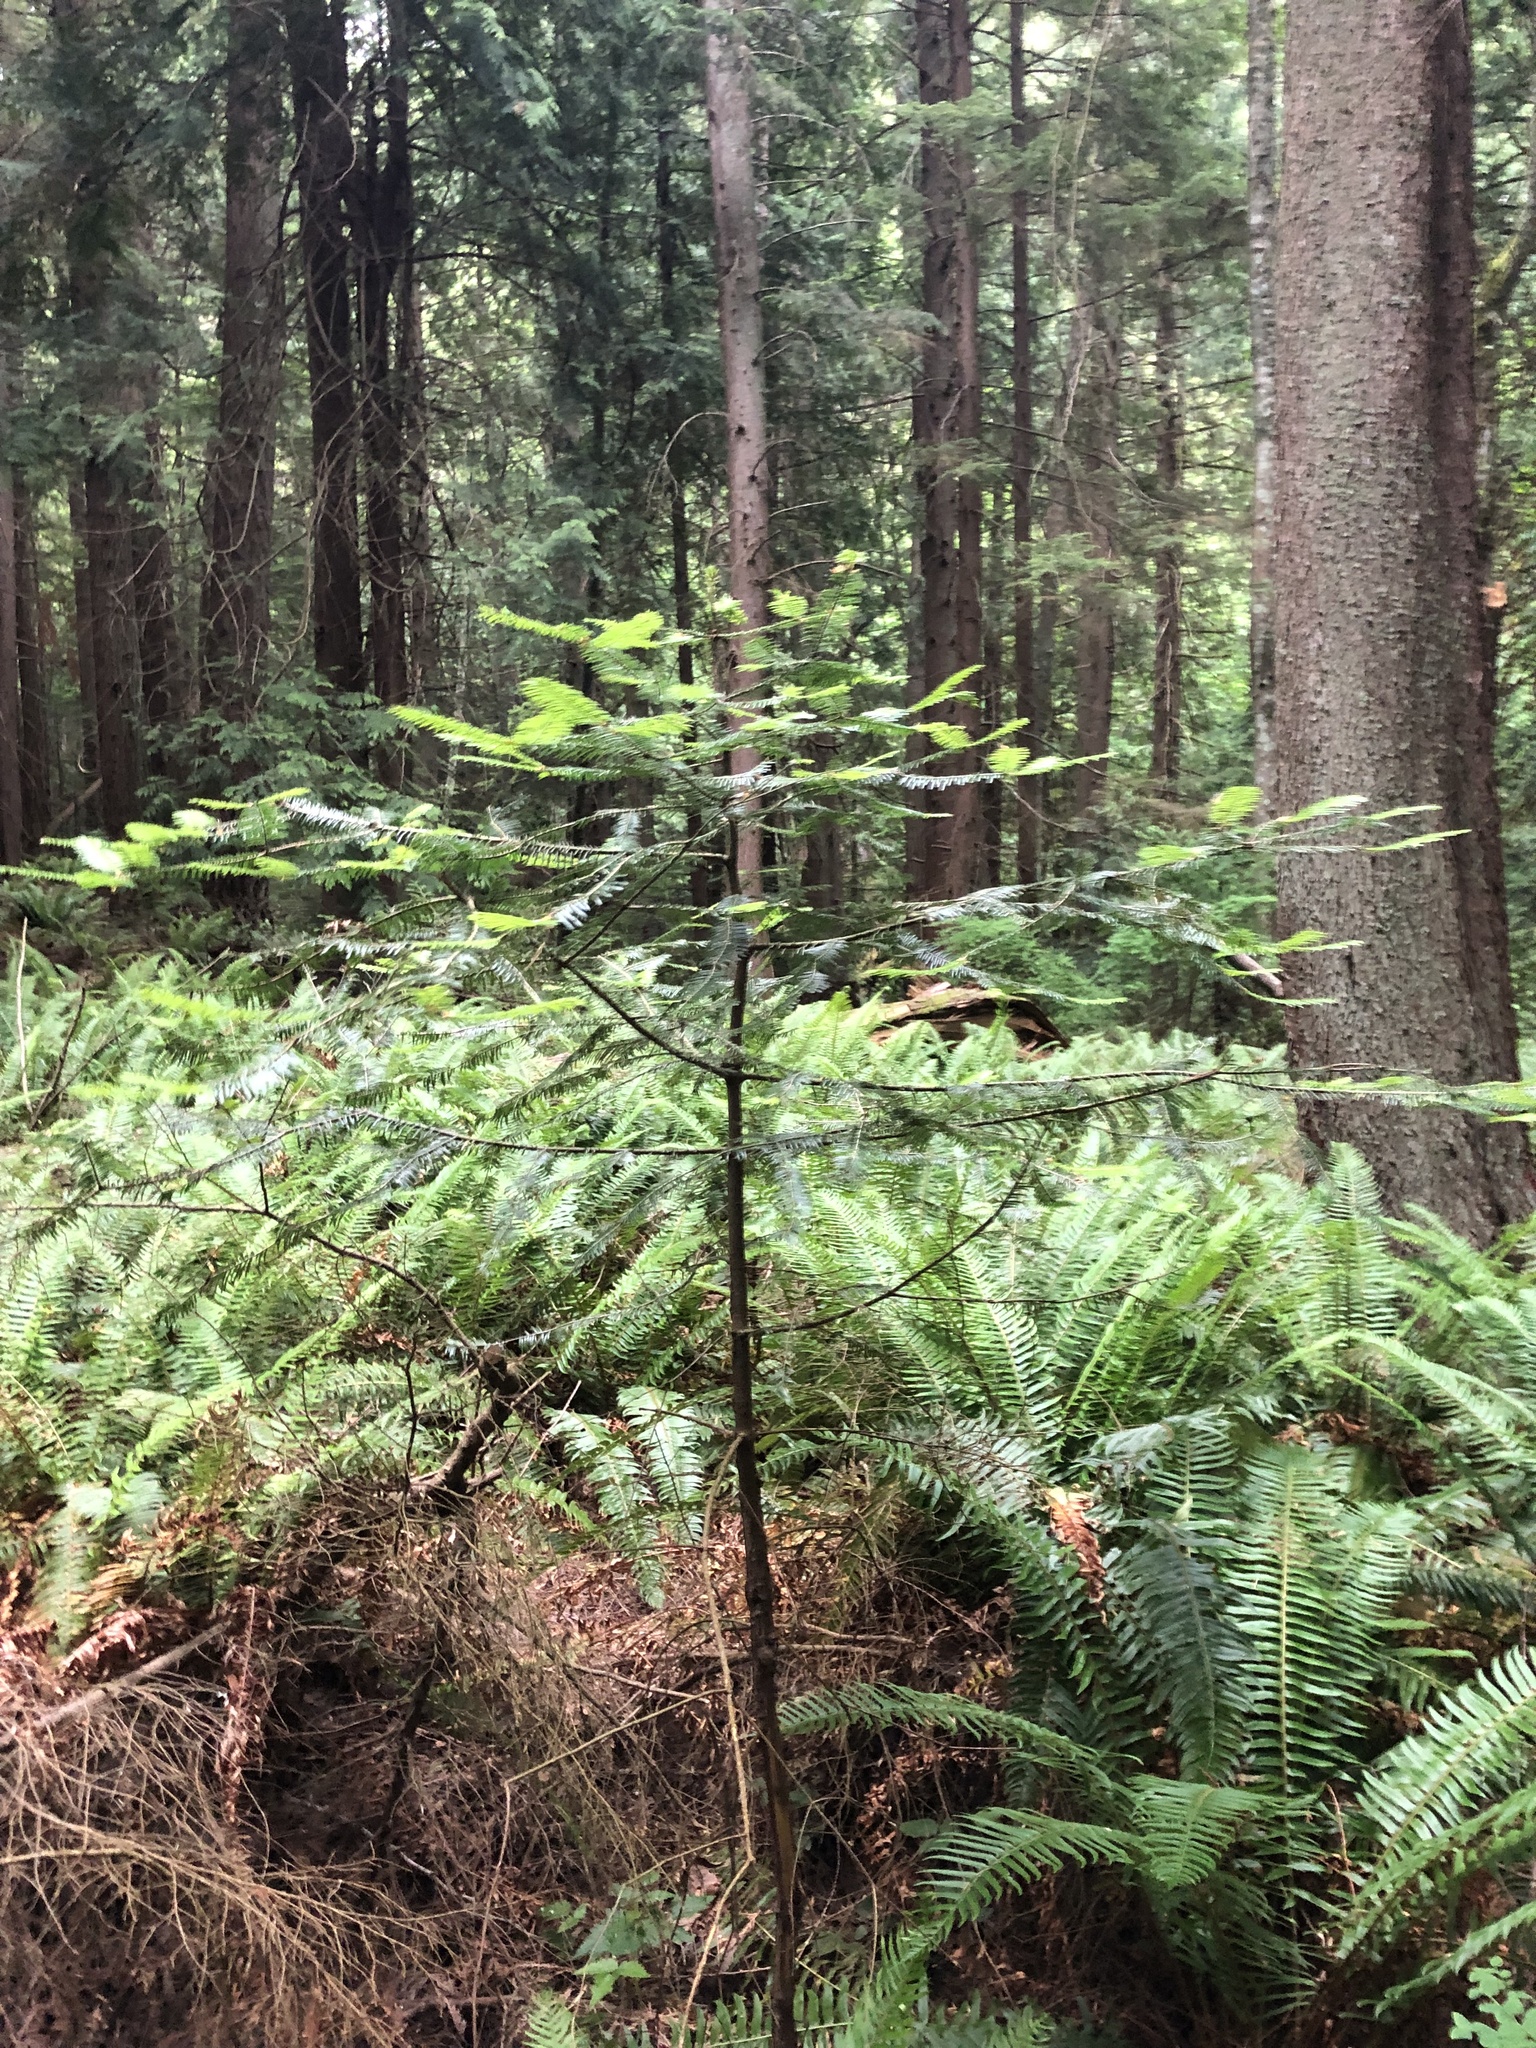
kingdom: Plantae
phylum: Tracheophyta
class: Pinopsida
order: Pinales
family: Pinaceae
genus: Abies
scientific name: Abies grandis
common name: Giant fir
